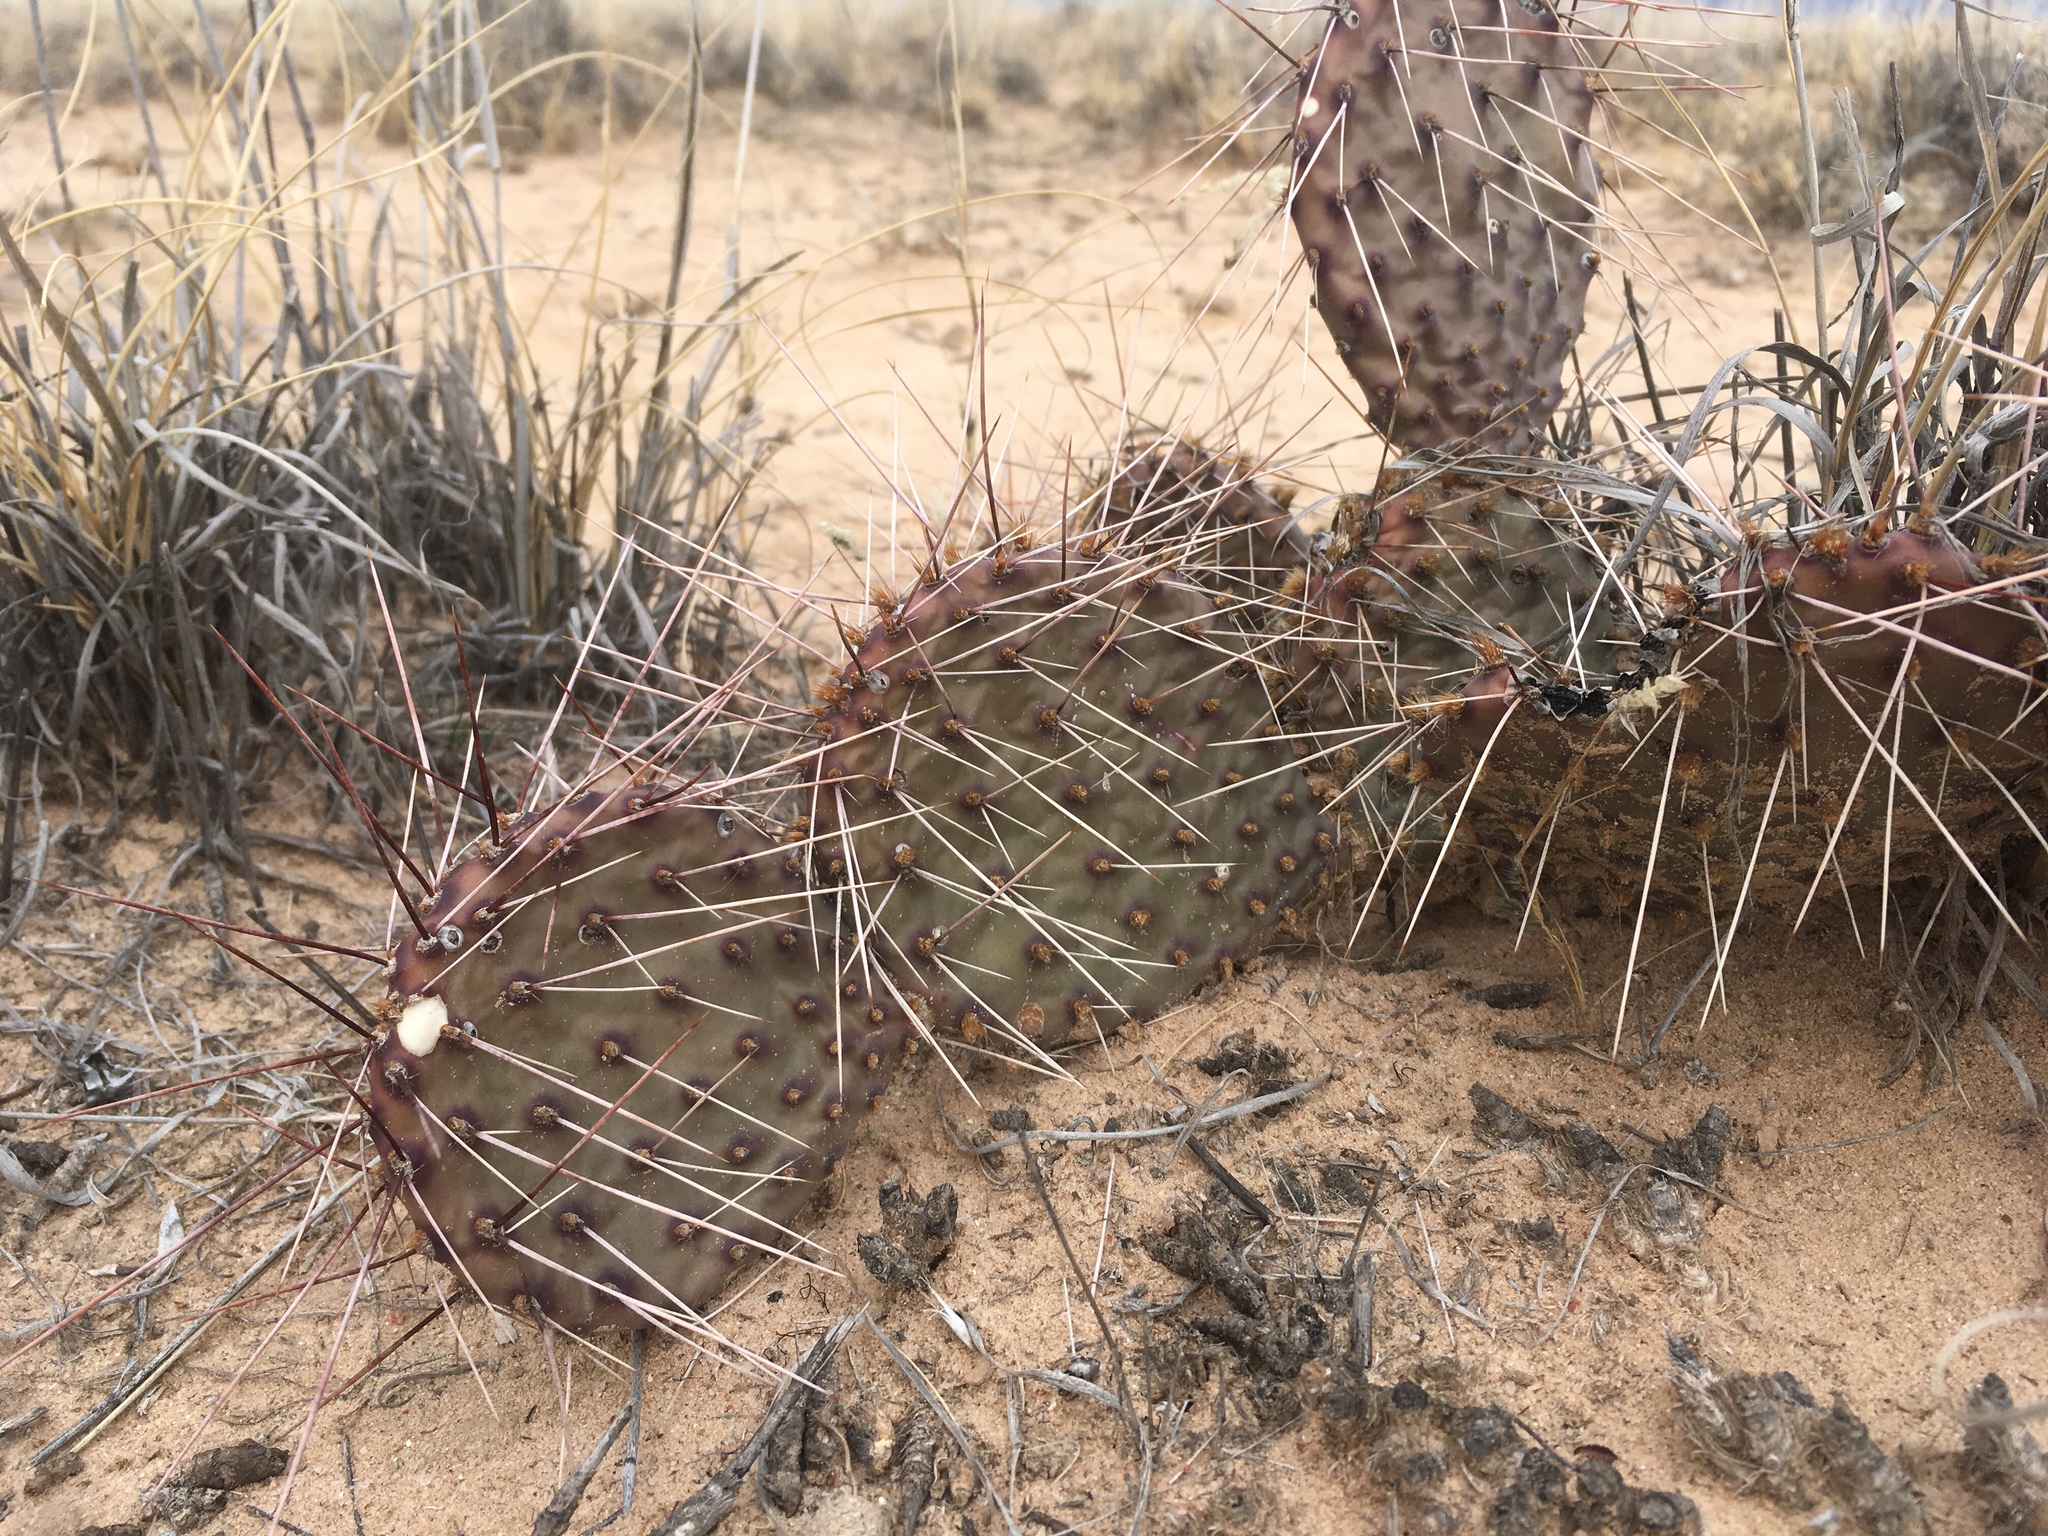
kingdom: Plantae
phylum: Tracheophyta
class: Magnoliopsida
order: Caryophyllales
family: Cactaceae
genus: Opuntia
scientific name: Opuntia macrorhiza
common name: Grassland pricklypear
